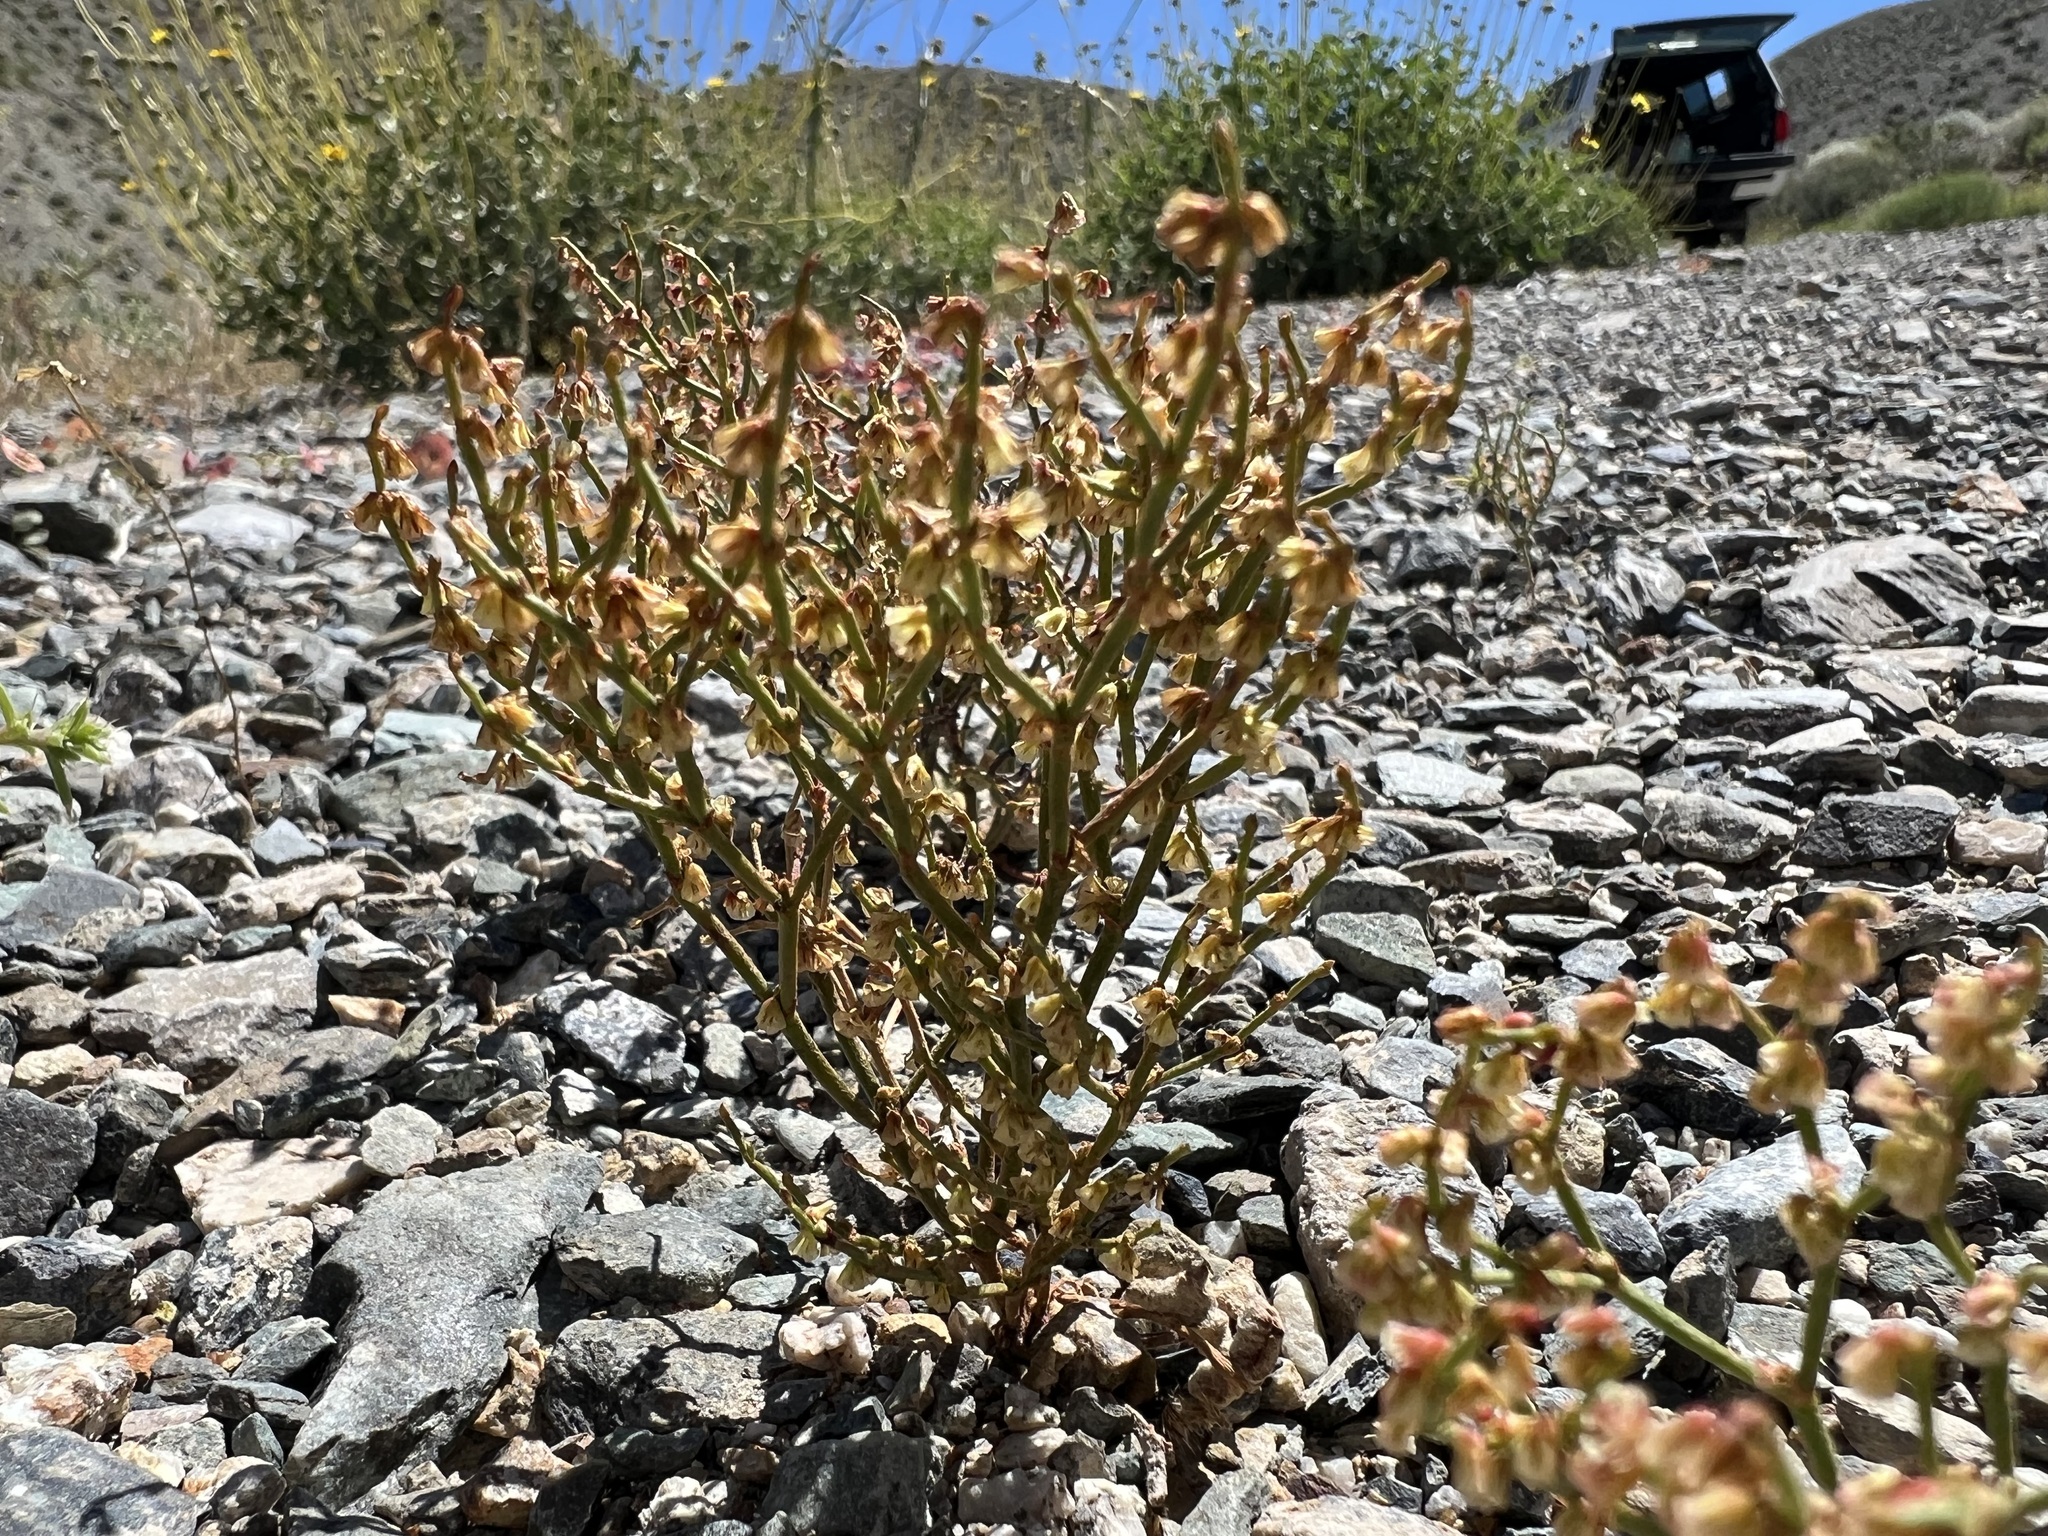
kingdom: Plantae
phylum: Tracheophyta
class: Magnoliopsida
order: Caryophyllales
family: Polygonaceae
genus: Eriogonum
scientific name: Eriogonum nidularium
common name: Bird's-nest wild buckwheat
